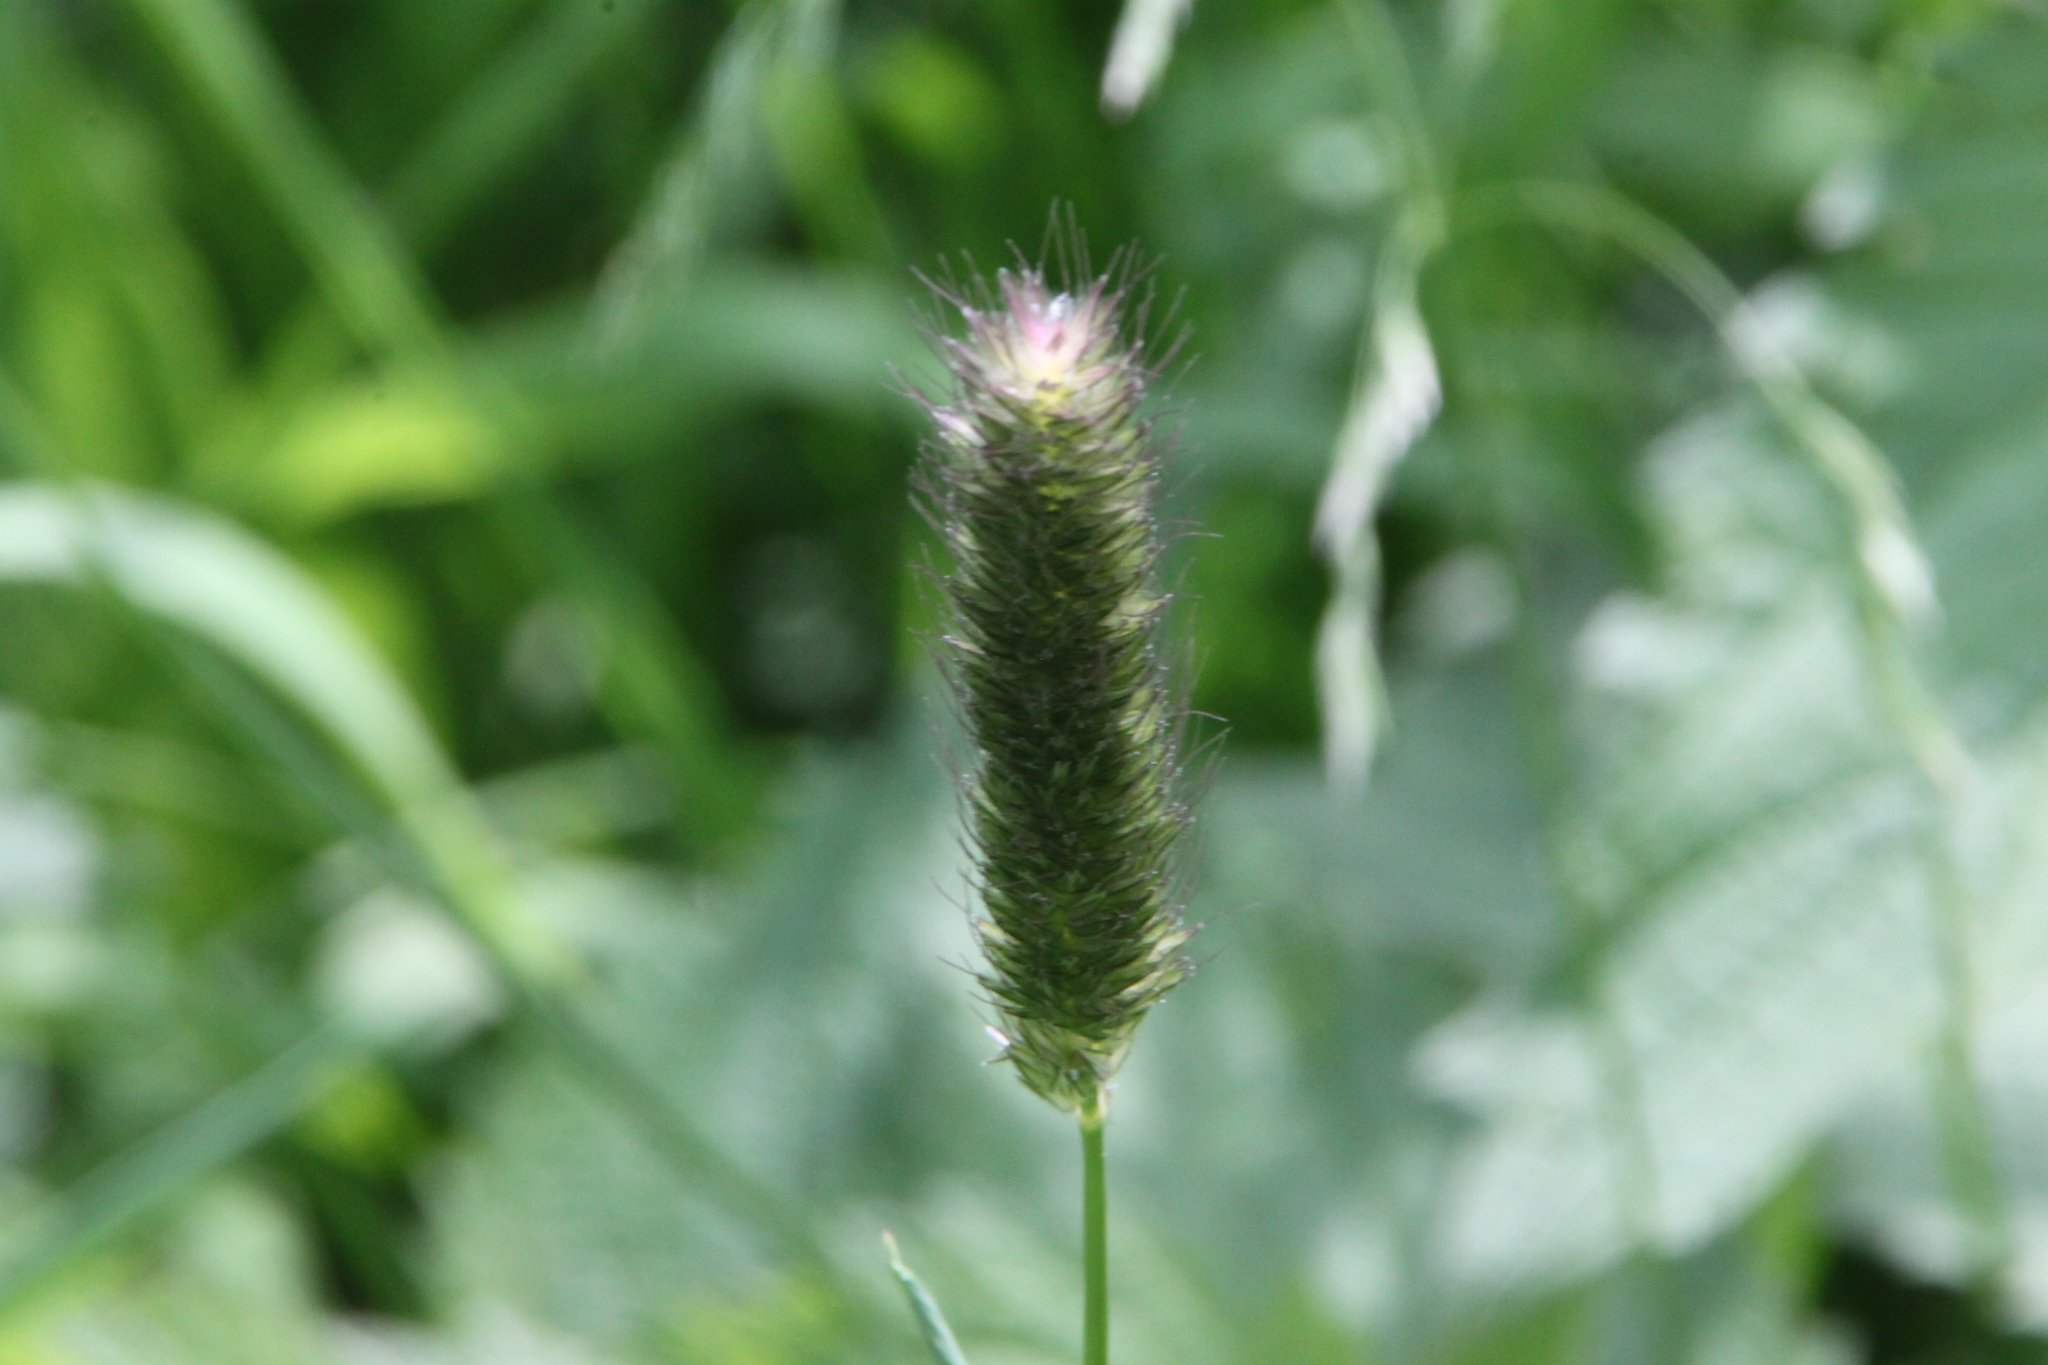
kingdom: Plantae
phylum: Tracheophyta
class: Liliopsida
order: Poales
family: Poaceae
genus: Alopecurus
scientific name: Alopecurus pratensis
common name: Meadow foxtail
